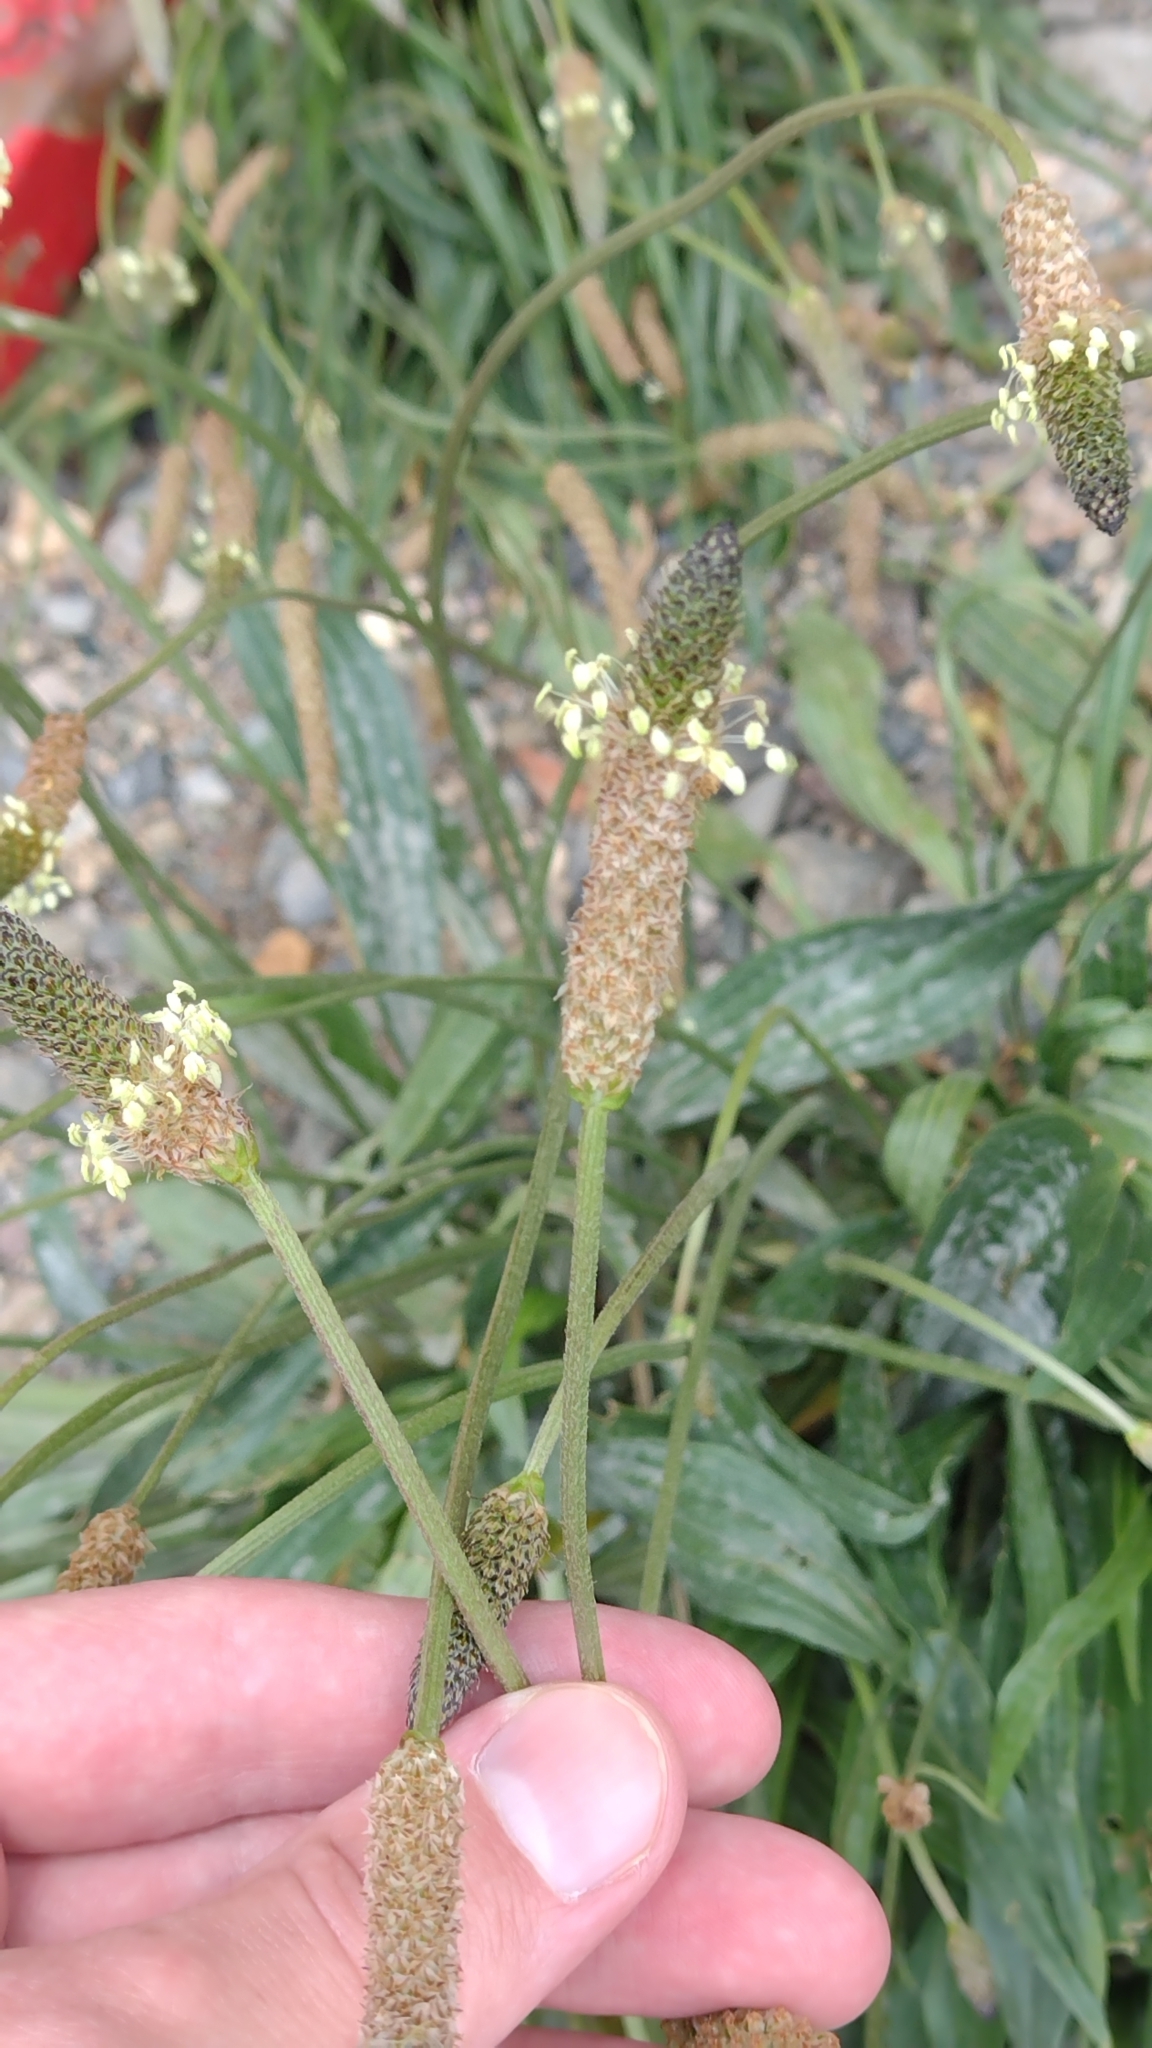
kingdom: Plantae
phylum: Tracheophyta
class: Magnoliopsida
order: Lamiales
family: Plantaginaceae
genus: Plantago
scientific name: Plantago lanceolata
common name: Ribwort plantain
